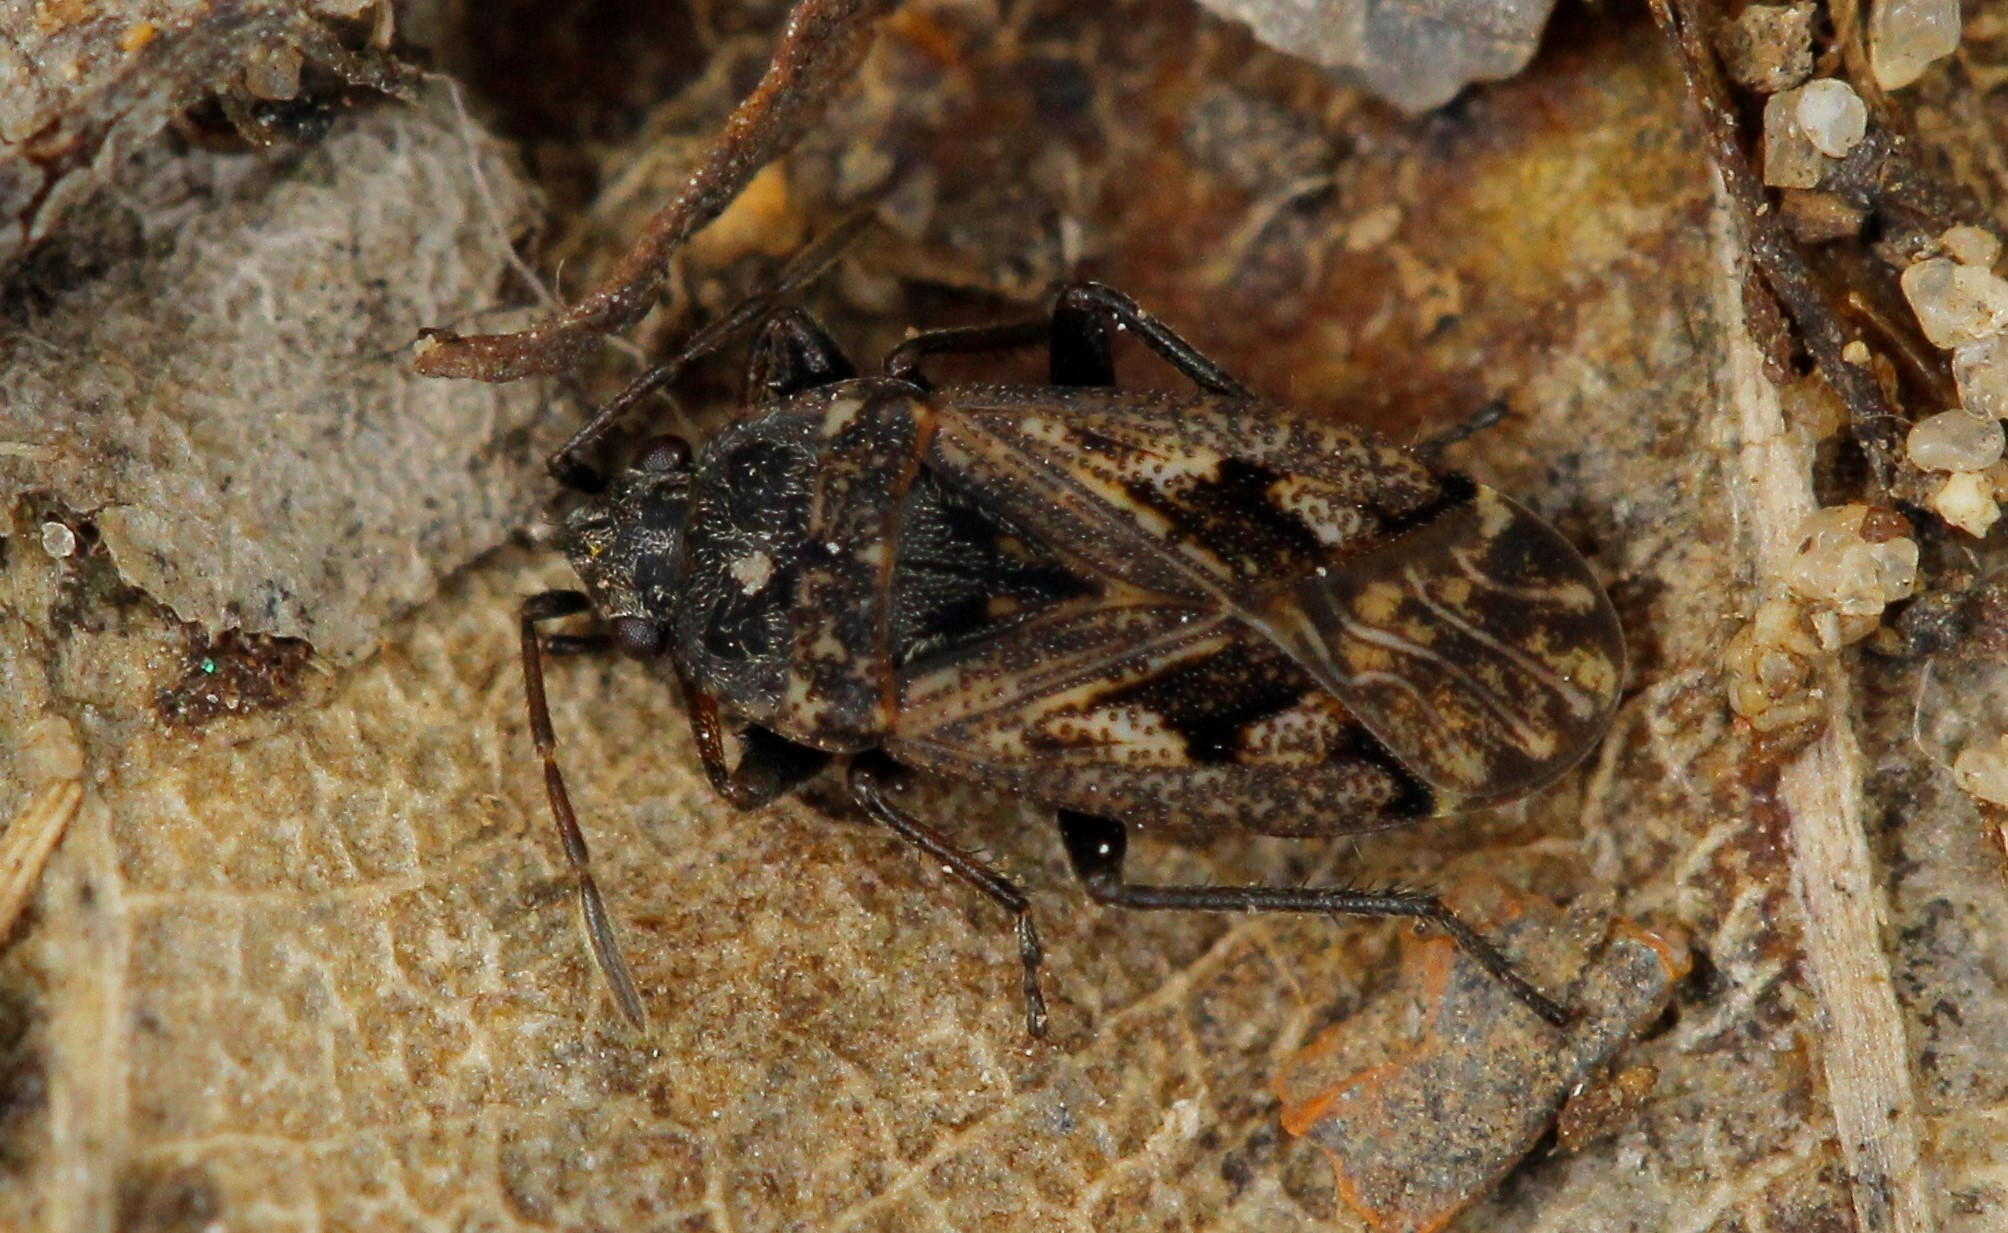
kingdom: Animalia
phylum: Arthropoda
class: Insecta
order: Hemiptera
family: Rhyparochromidae
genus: Sphragisticus
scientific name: Sphragisticus nebulosus
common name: Dirt-colored seed bug
